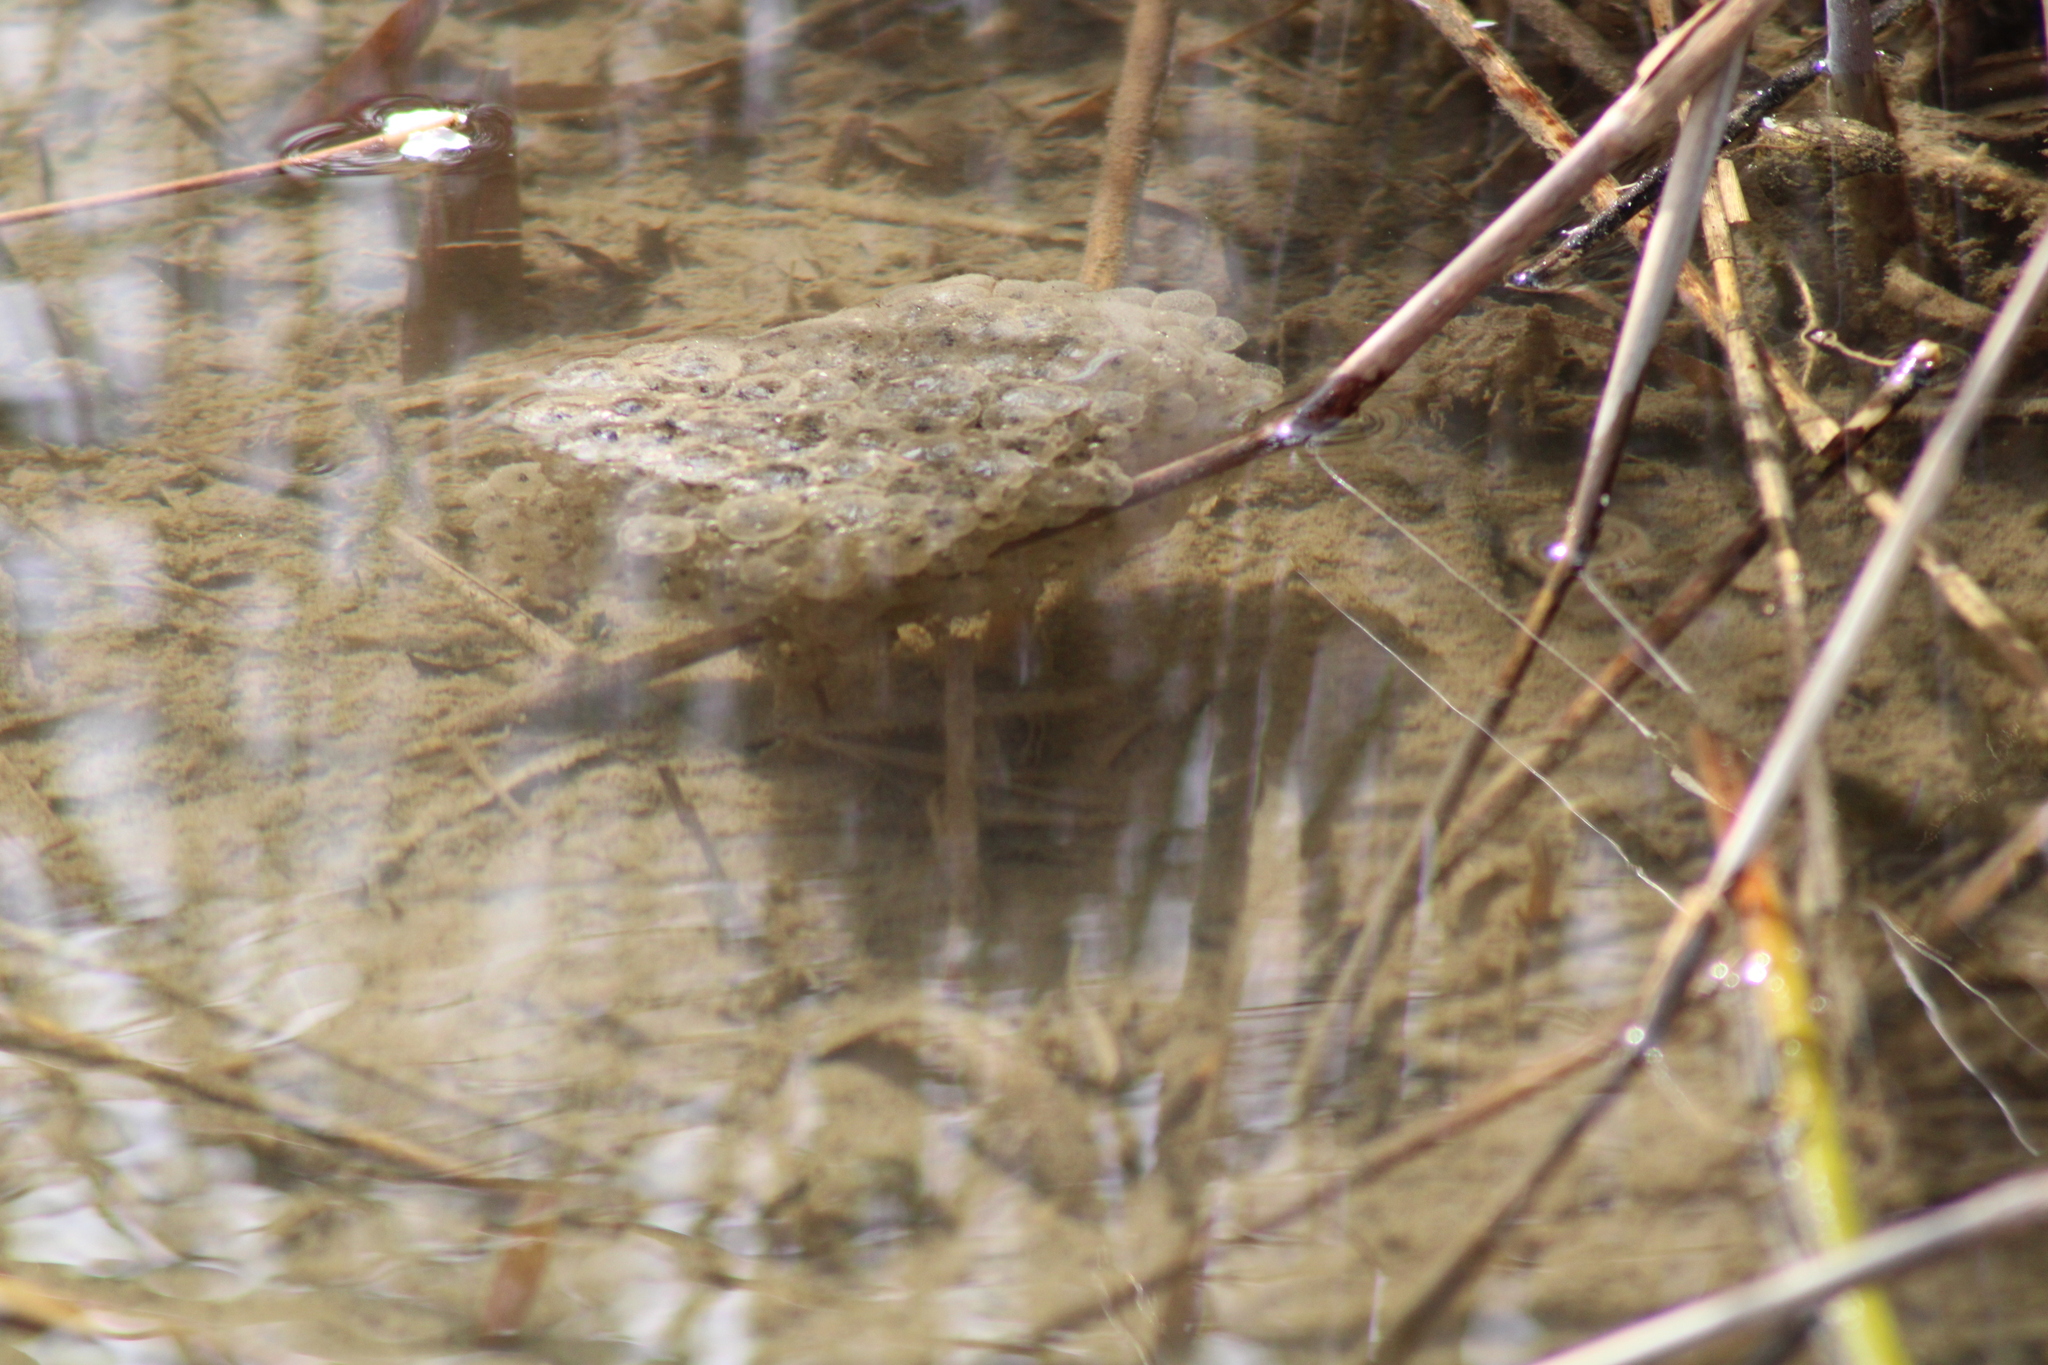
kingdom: Animalia
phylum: Chordata
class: Amphibia
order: Anura
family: Ranidae
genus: Rana
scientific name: Rana dalmatina
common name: Agile frog
